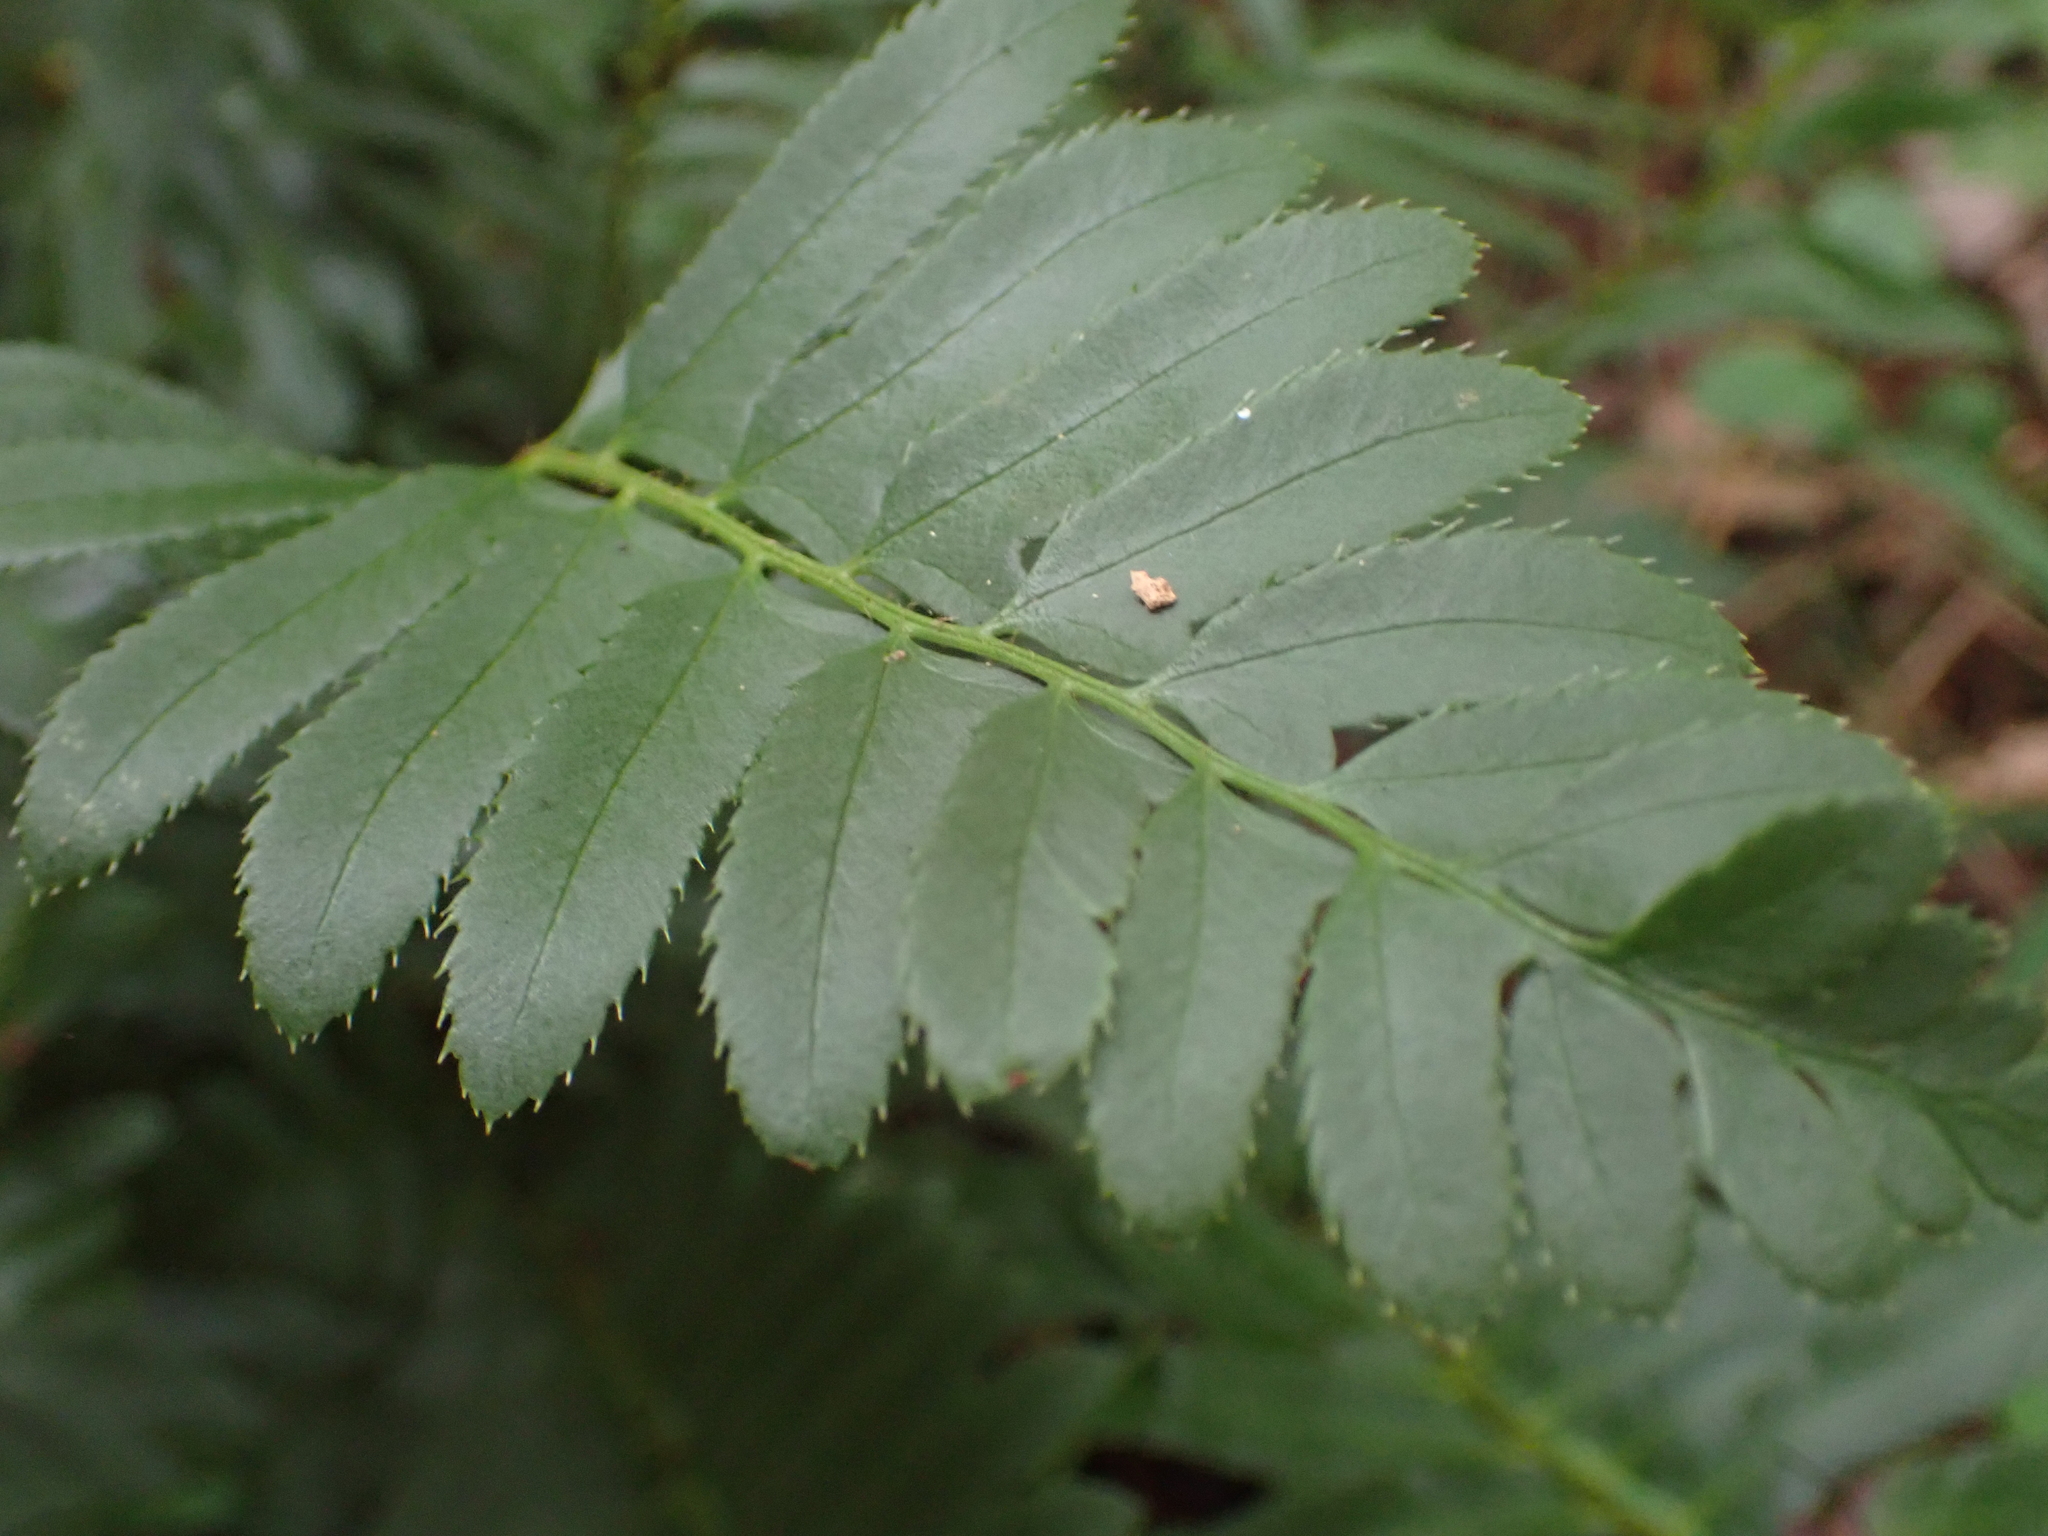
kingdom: Plantae
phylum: Tracheophyta
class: Polypodiopsida
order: Polypodiales
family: Dryopteridaceae
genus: Polystichum
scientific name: Polystichum acrostichoides
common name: Christmas fern
